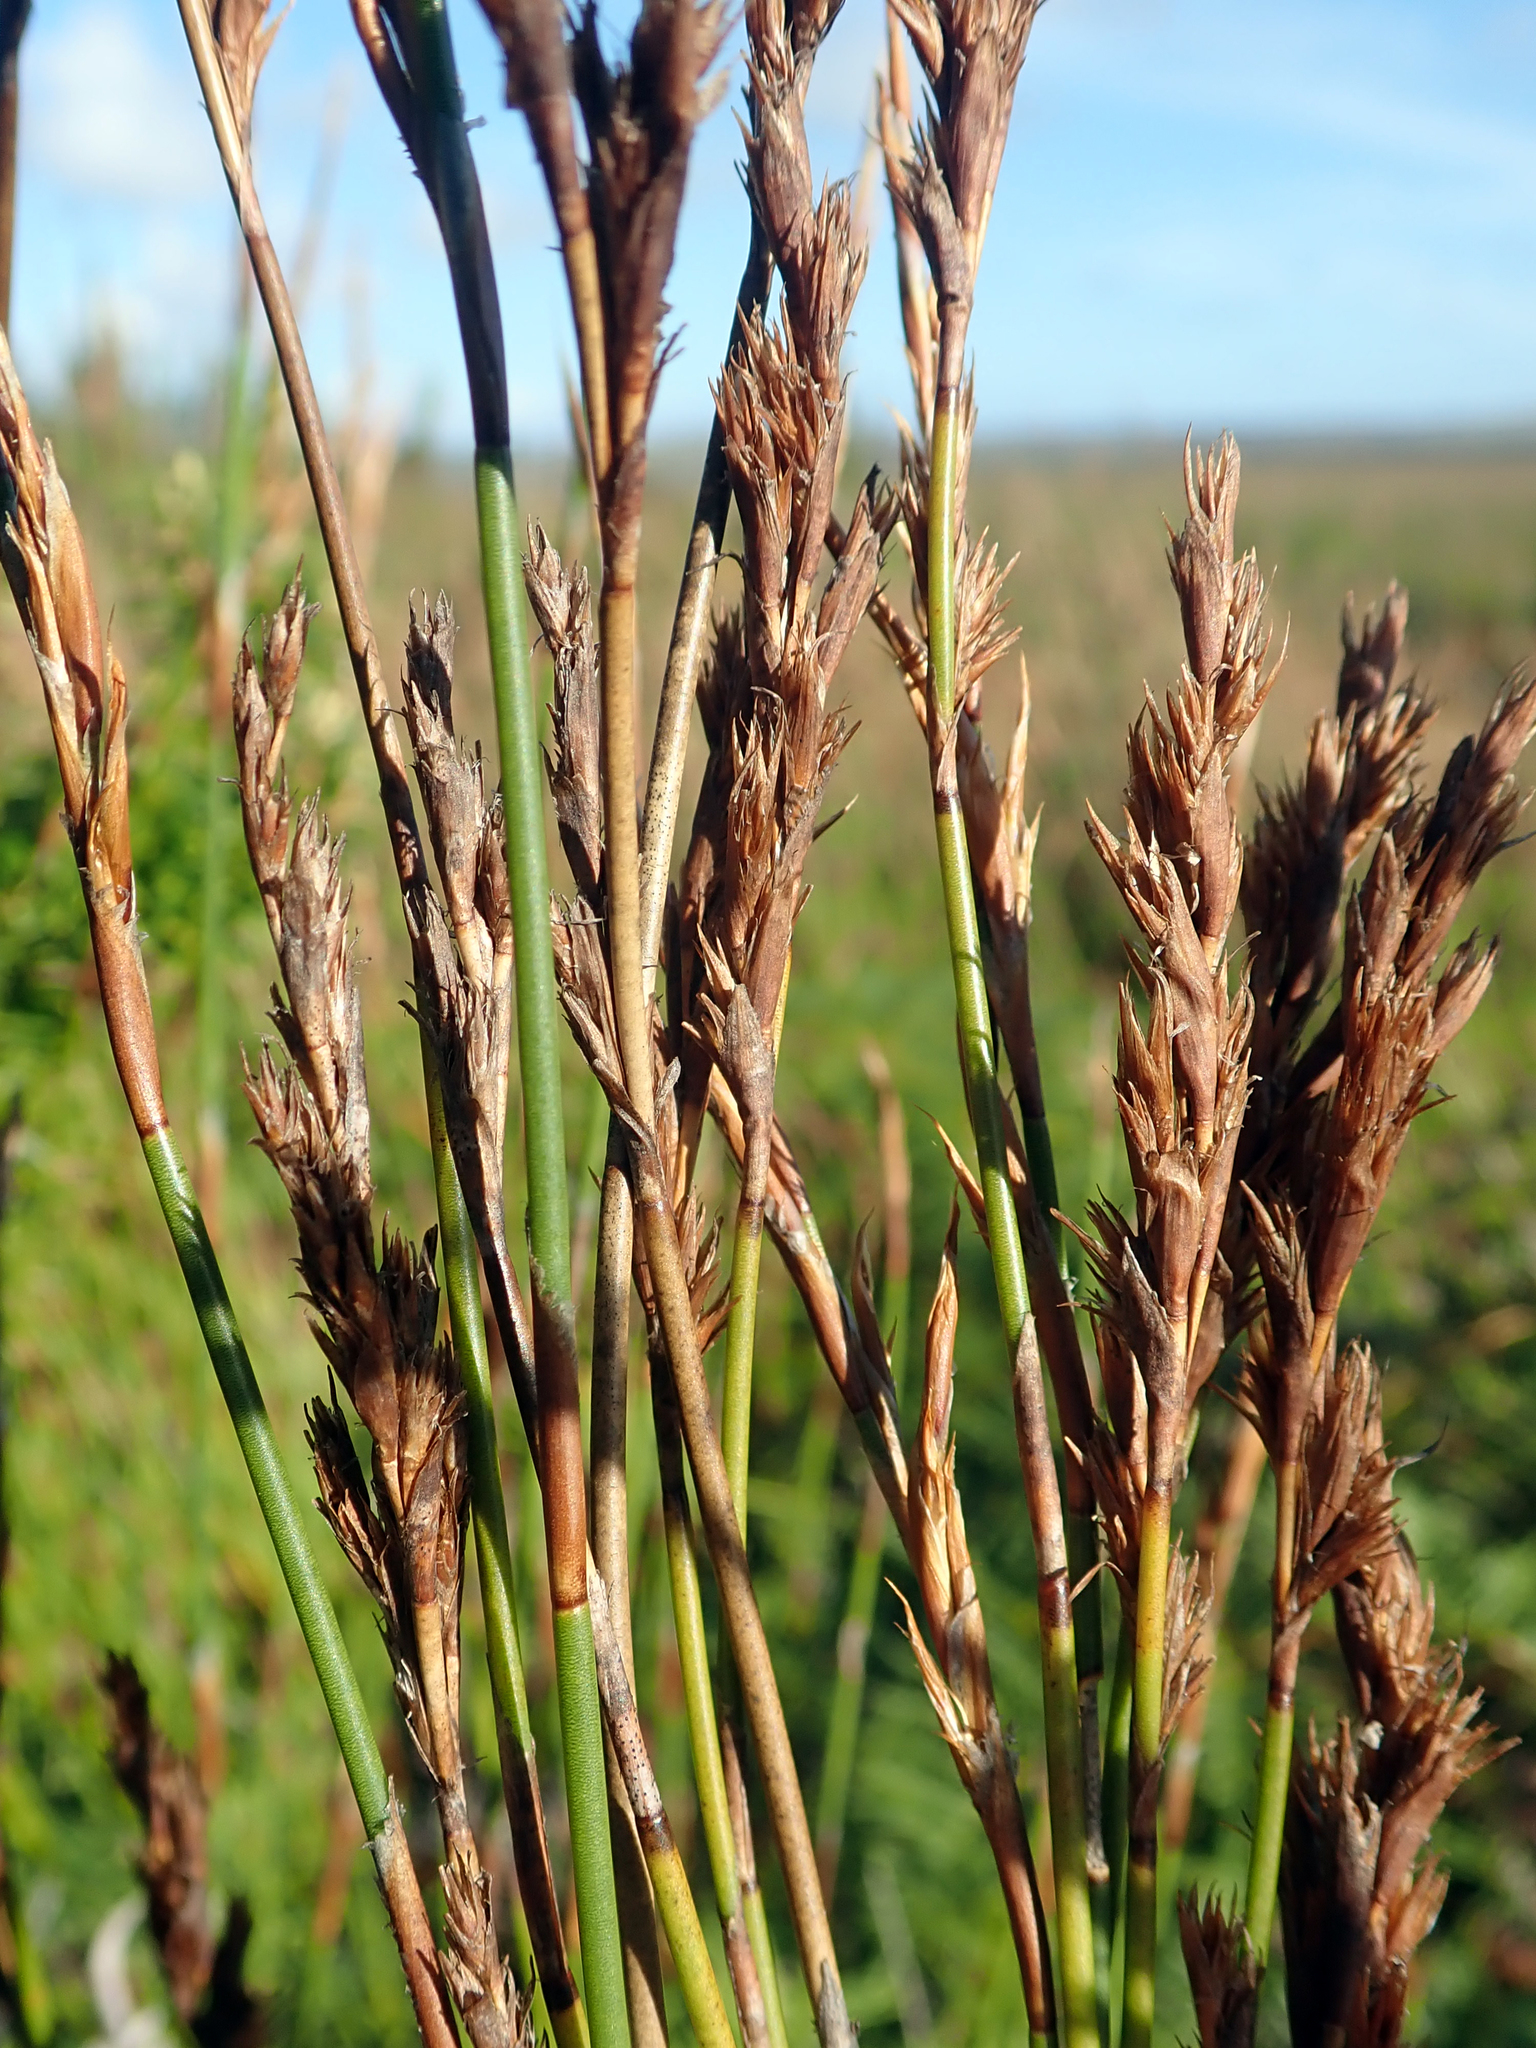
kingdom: Plantae
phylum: Tracheophyta
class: Liliopsida
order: Poales
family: Restionaceae
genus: Sporadanthus
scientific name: Sporadanthus traversii
